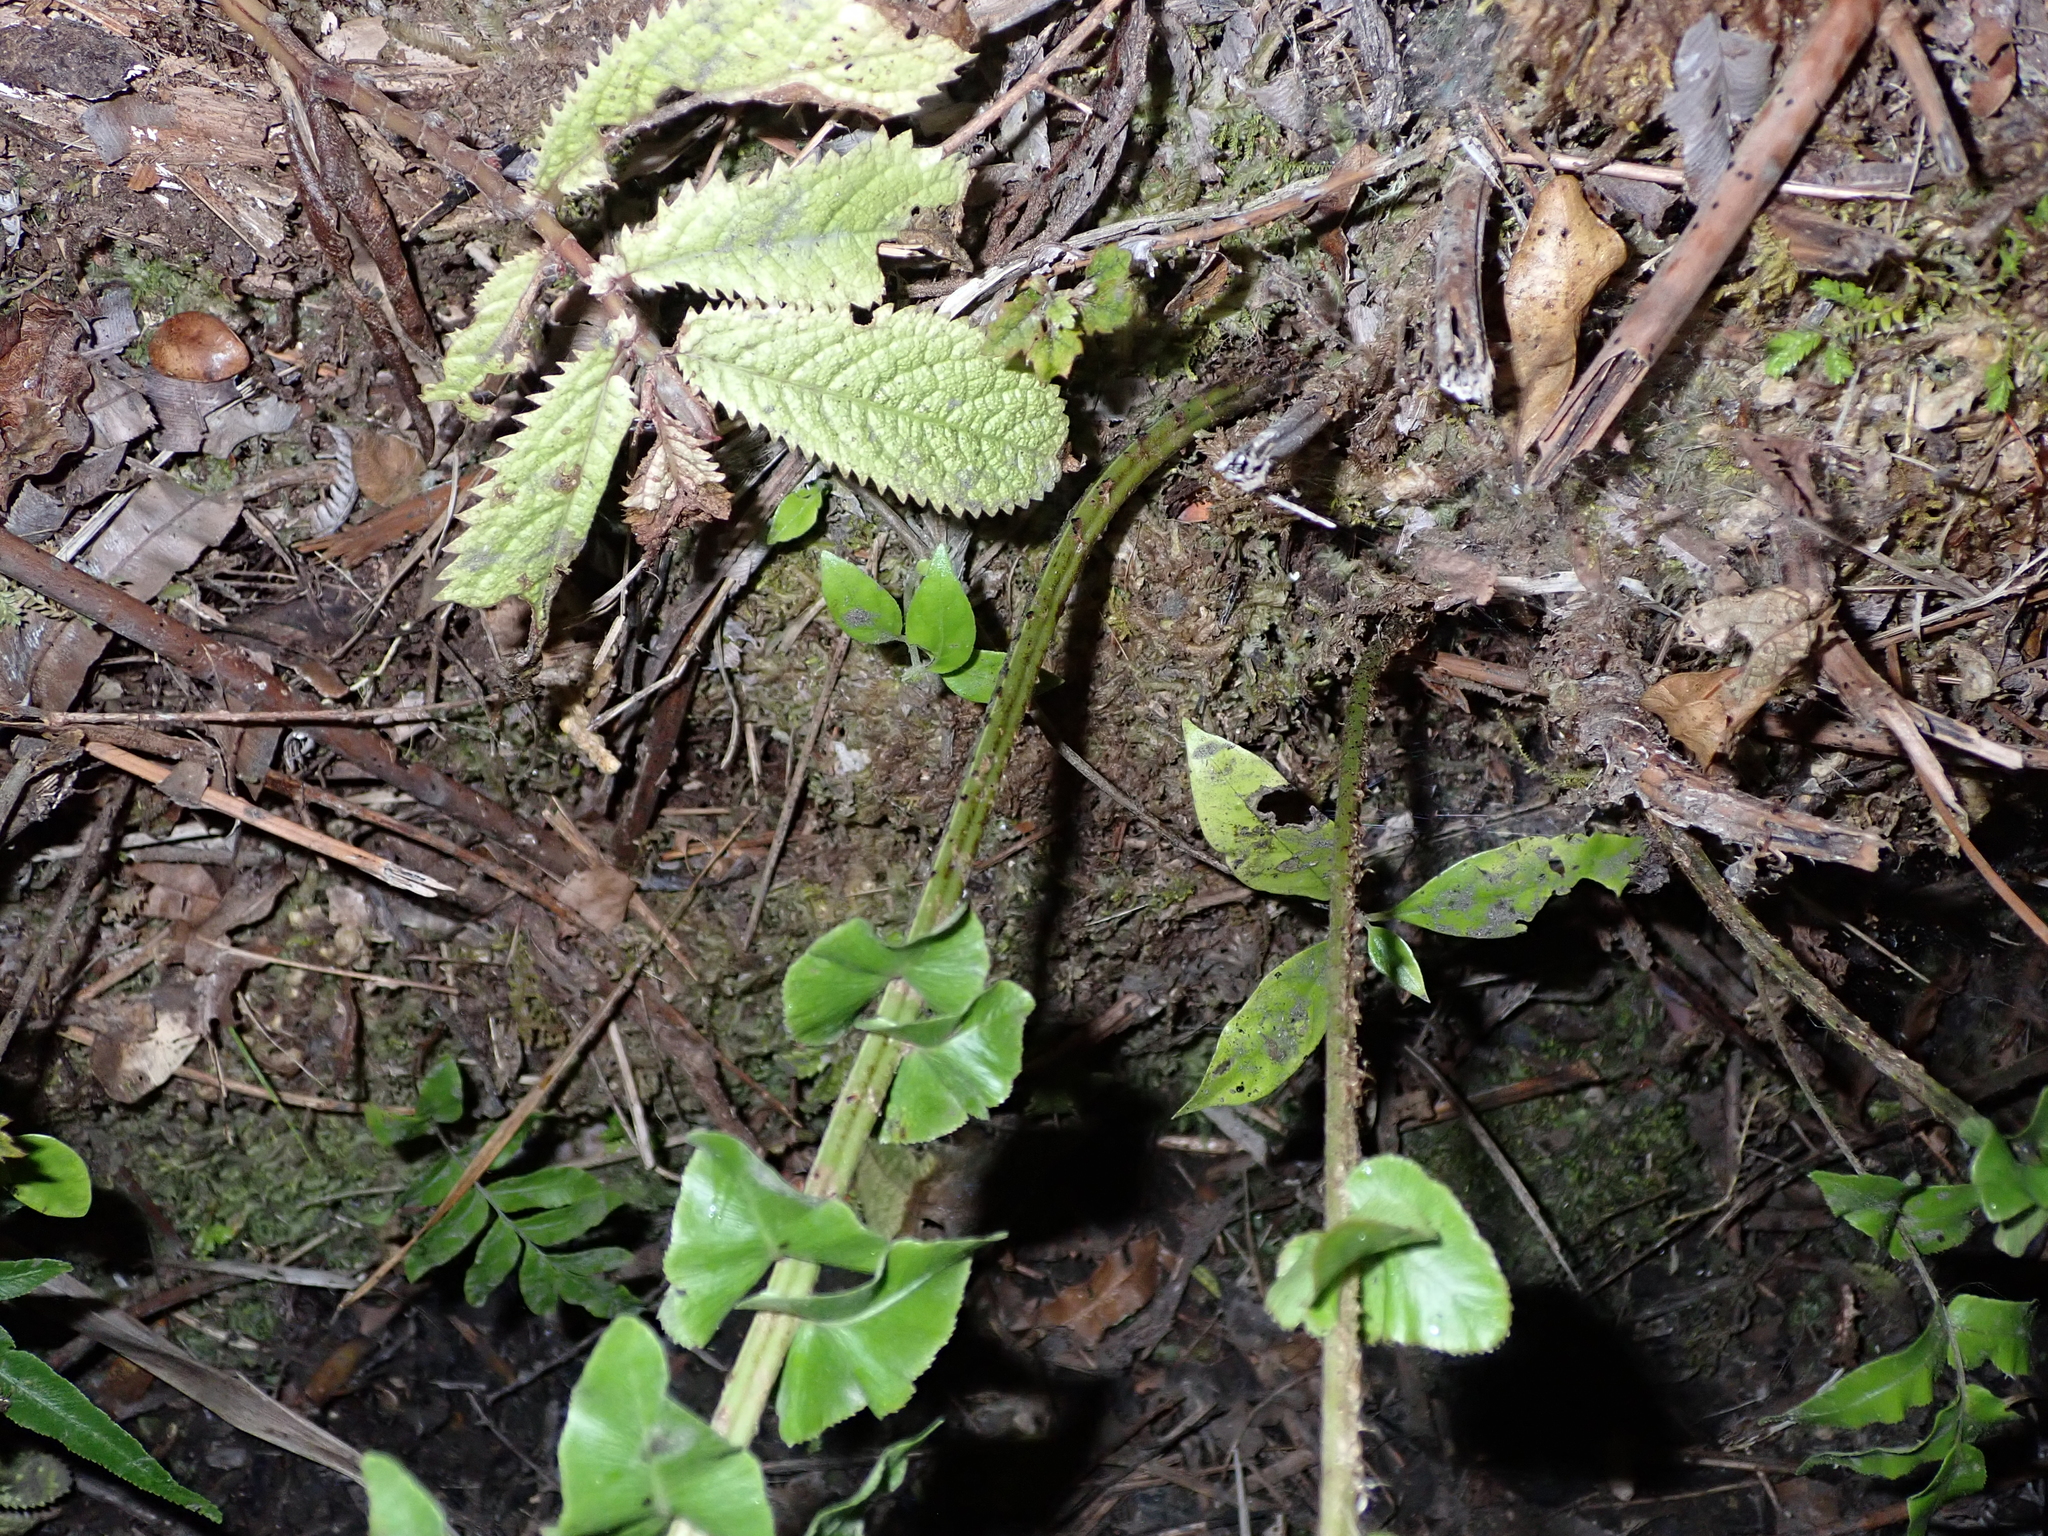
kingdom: Plantae
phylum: Tracheophyta
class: Polypodiopsida
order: Polypodiales
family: Blechnaceae
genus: Parablechnum
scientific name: Parablechnum novae-zelandiae
